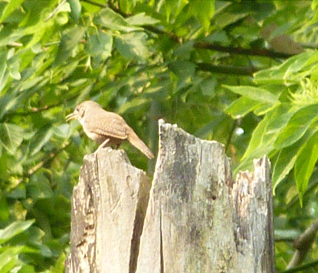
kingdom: Animalia
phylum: Chordata
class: Aves
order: Passeriformes
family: Troglodytidae
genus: Troglodytes
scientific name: Troglodytes aedon
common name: House wren
